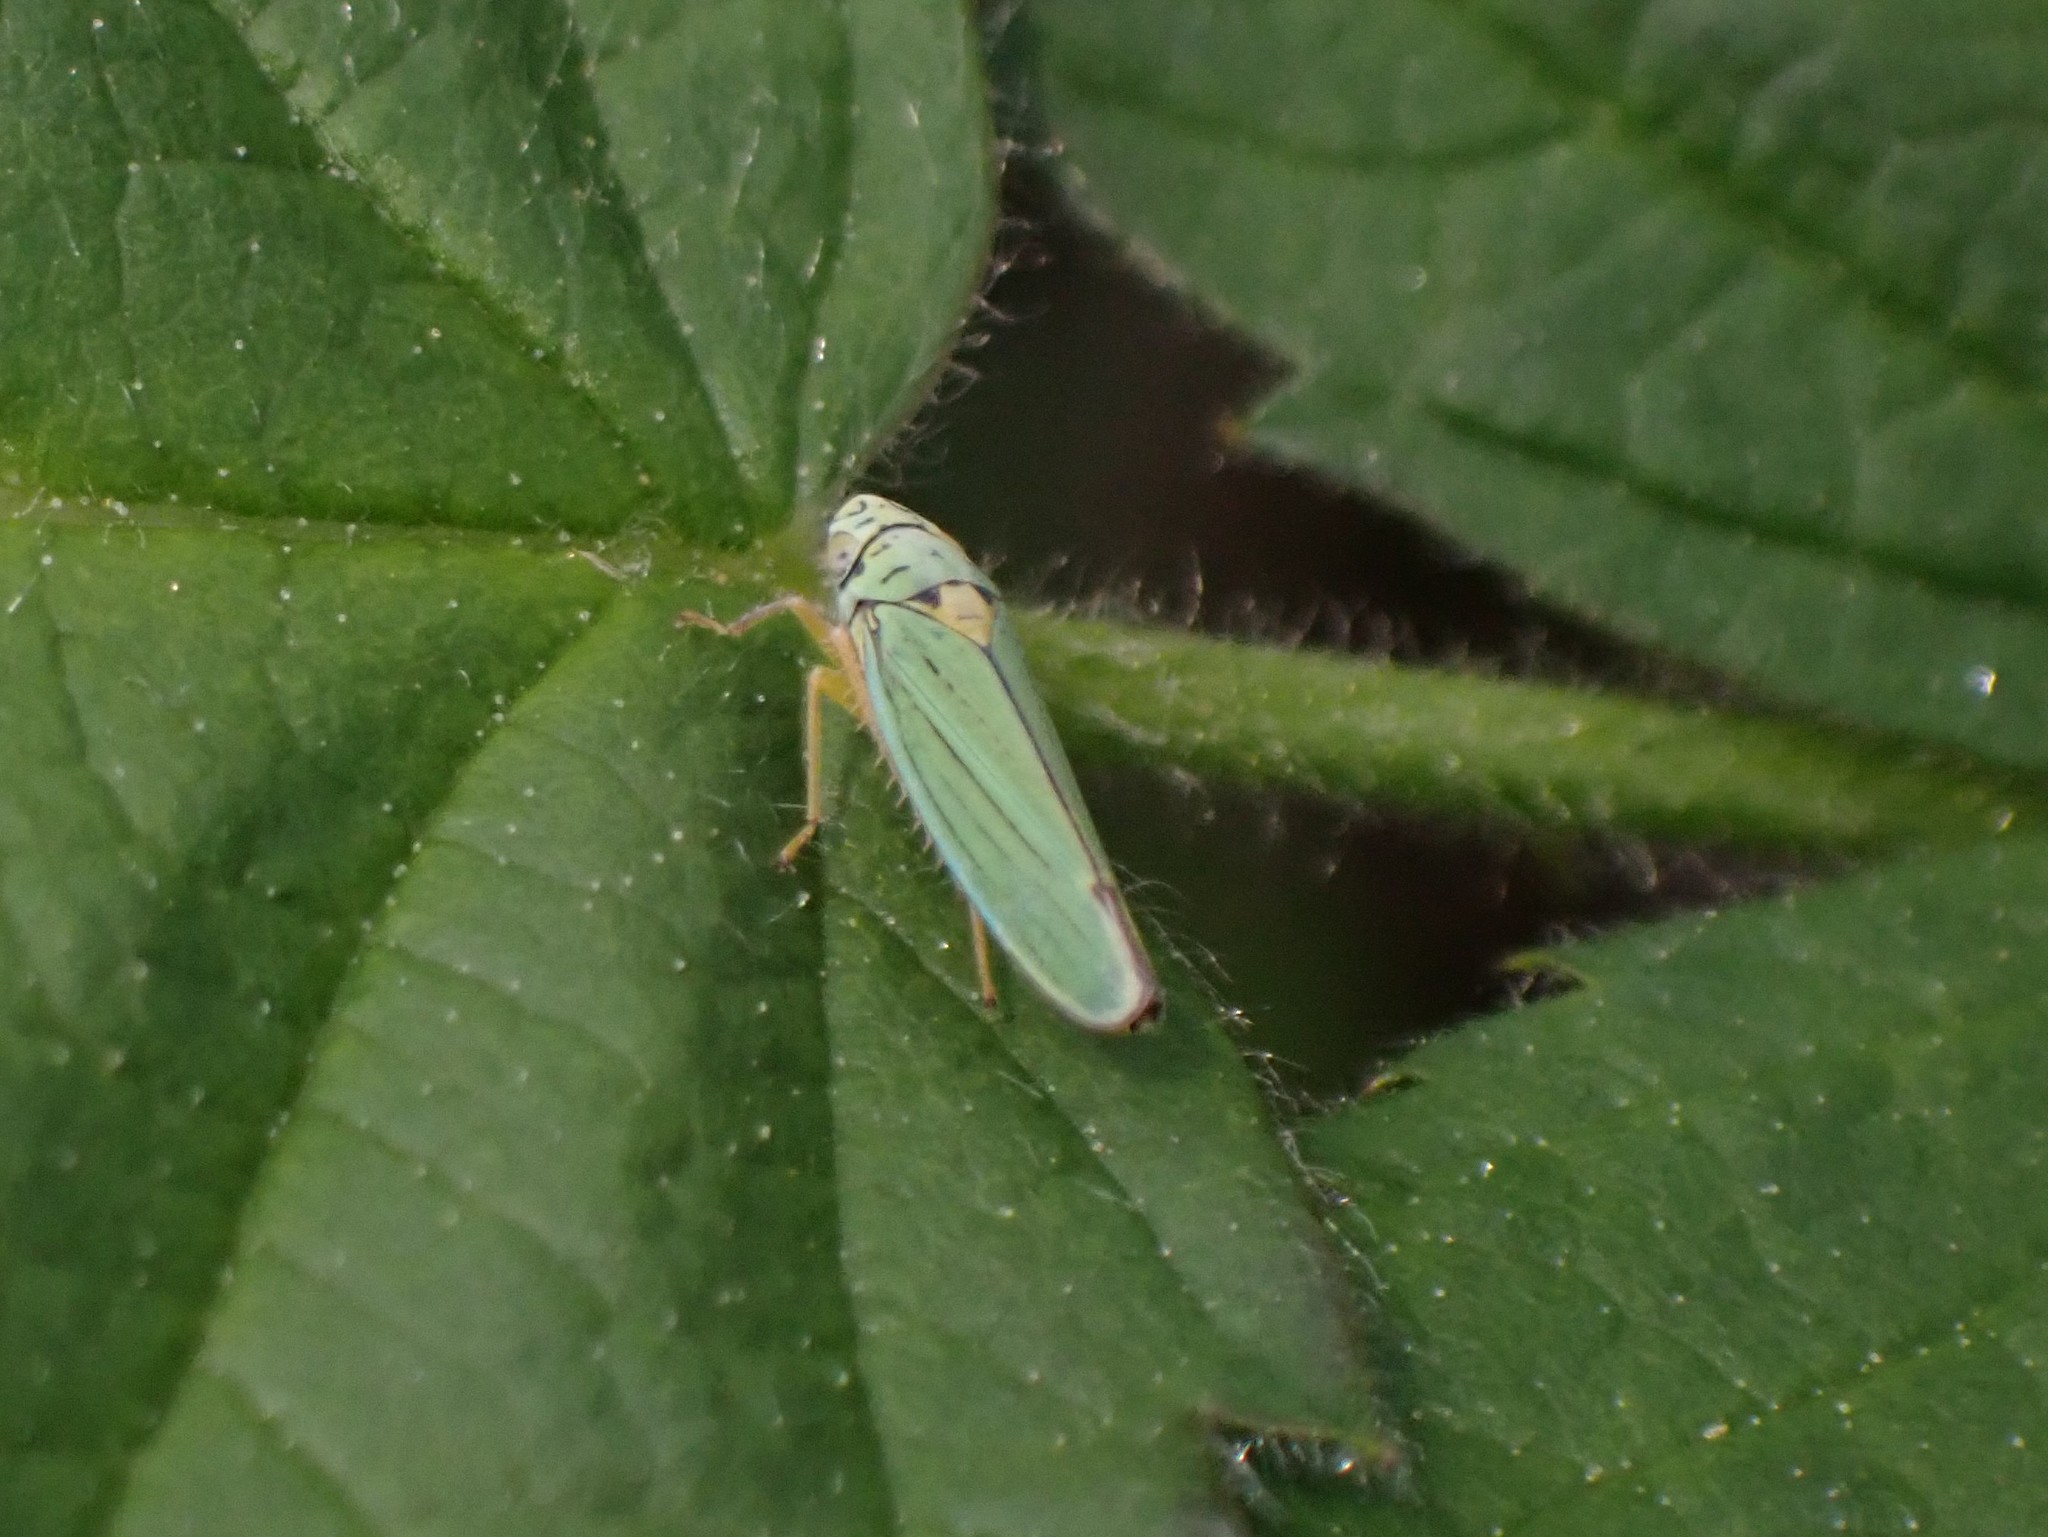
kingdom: Animalia
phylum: Arthropoda
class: Insecta
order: Hemiptera
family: Cicadellidae
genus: Graphocephala
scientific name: Graphocephala atropunctata
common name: Blue-green sharpshooter
